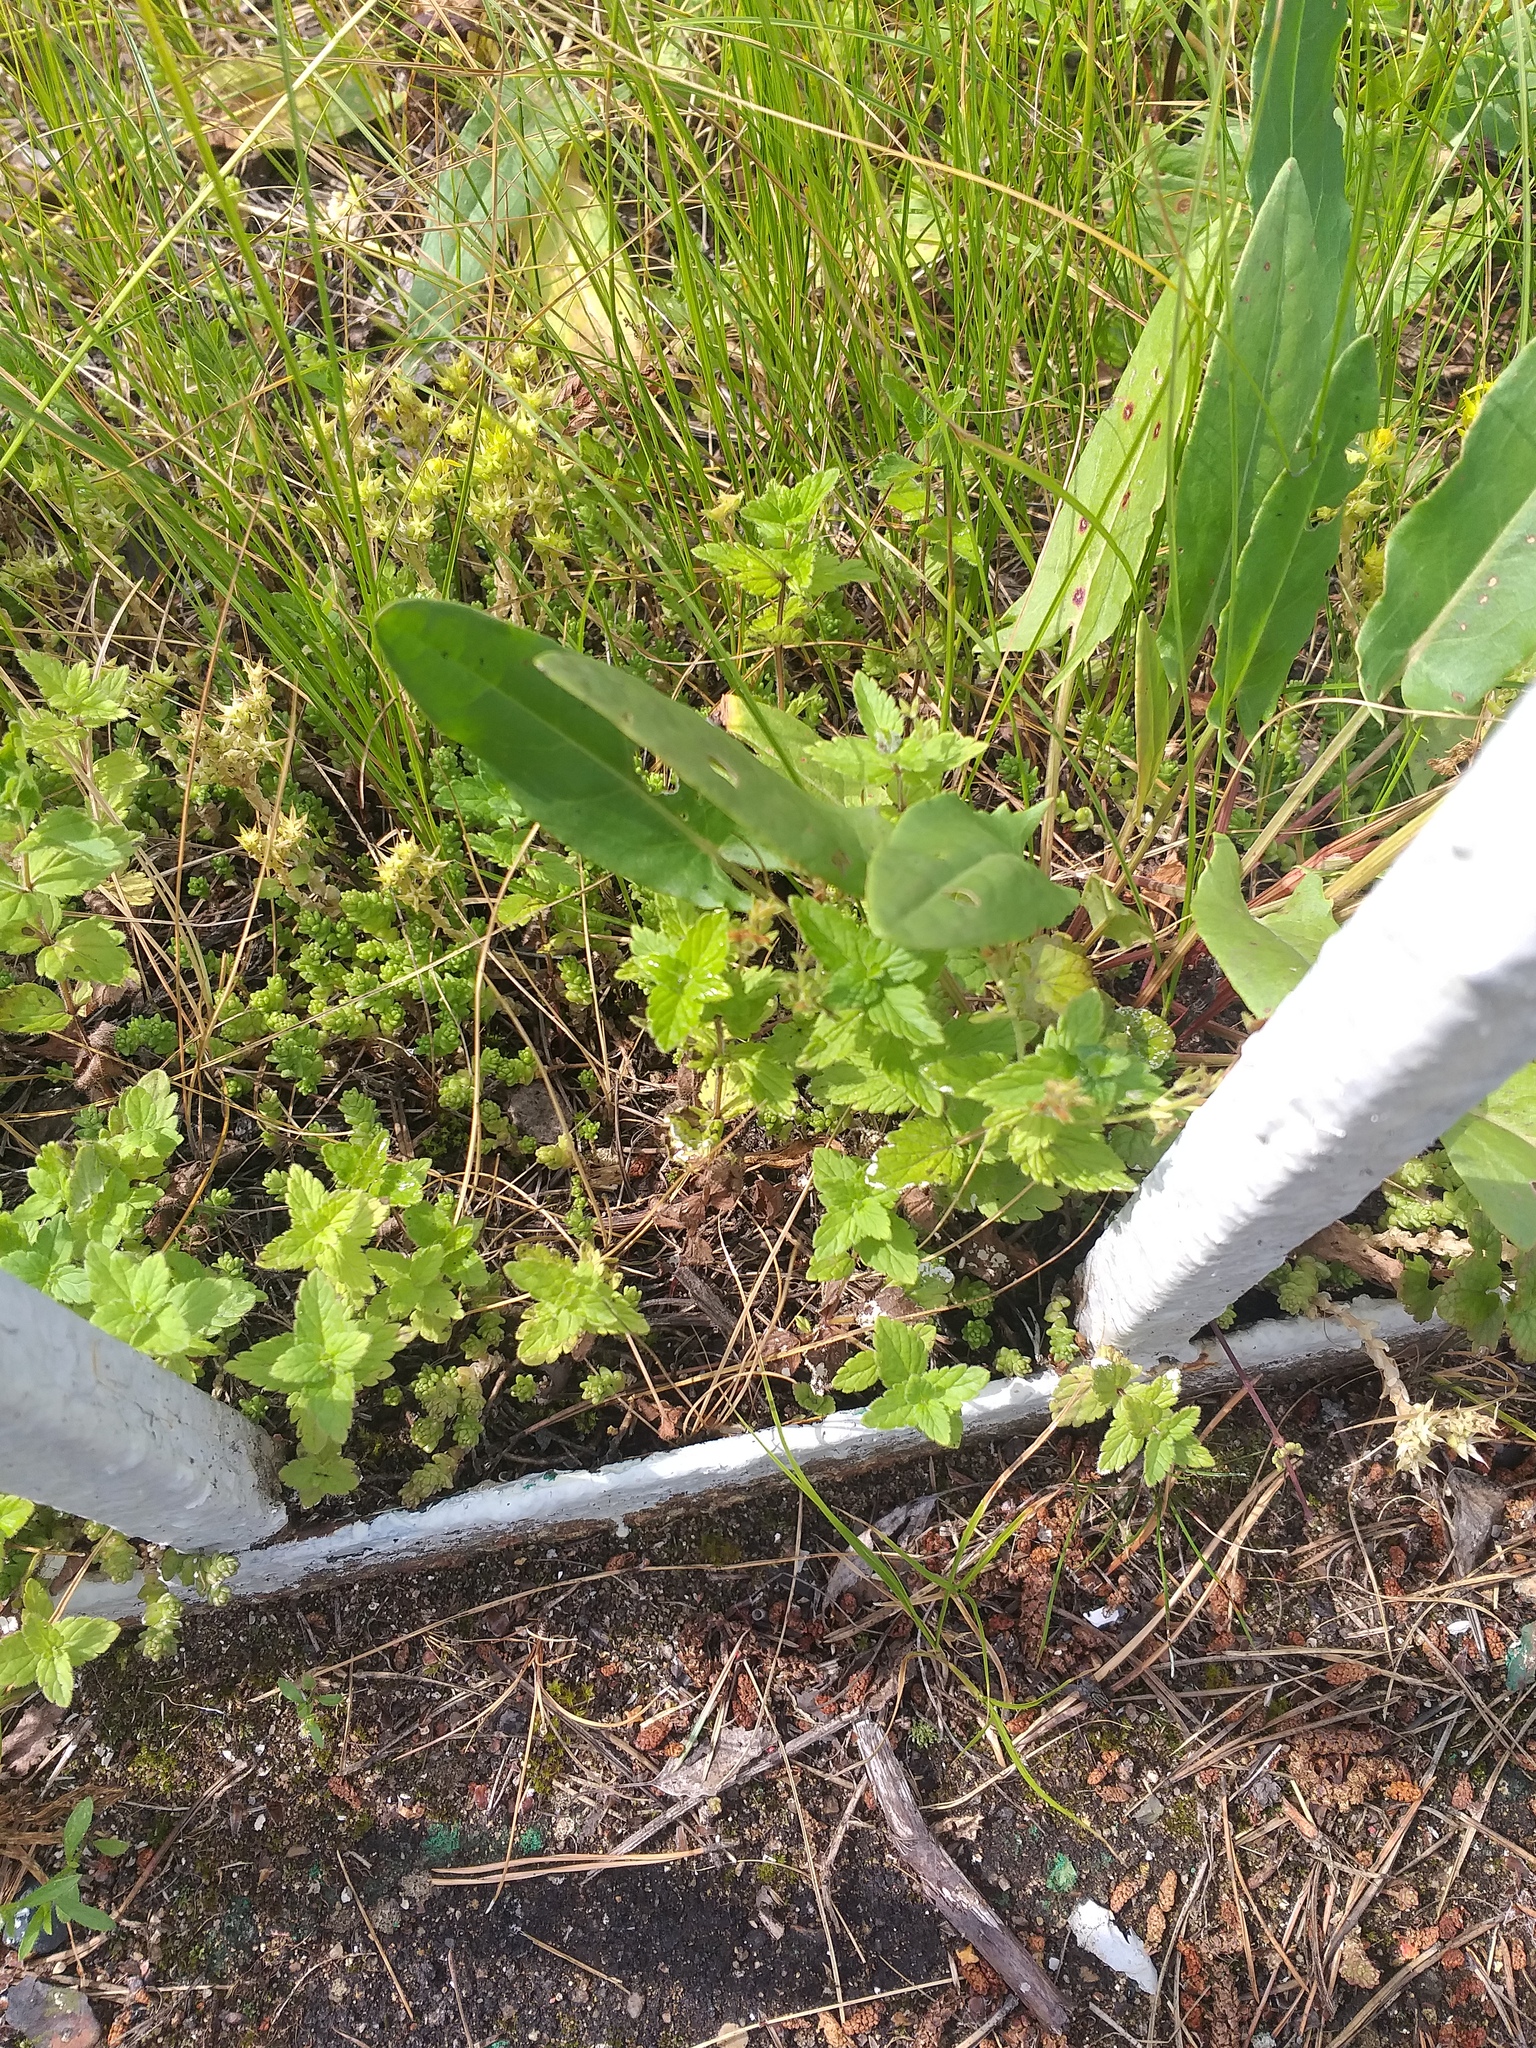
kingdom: Plantae
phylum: Tracheophyta
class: Magnoliopsida
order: Lamiales
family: Plantaginaceae
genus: Veronica
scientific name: Veronica chamaedrys
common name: Germander speedwell
